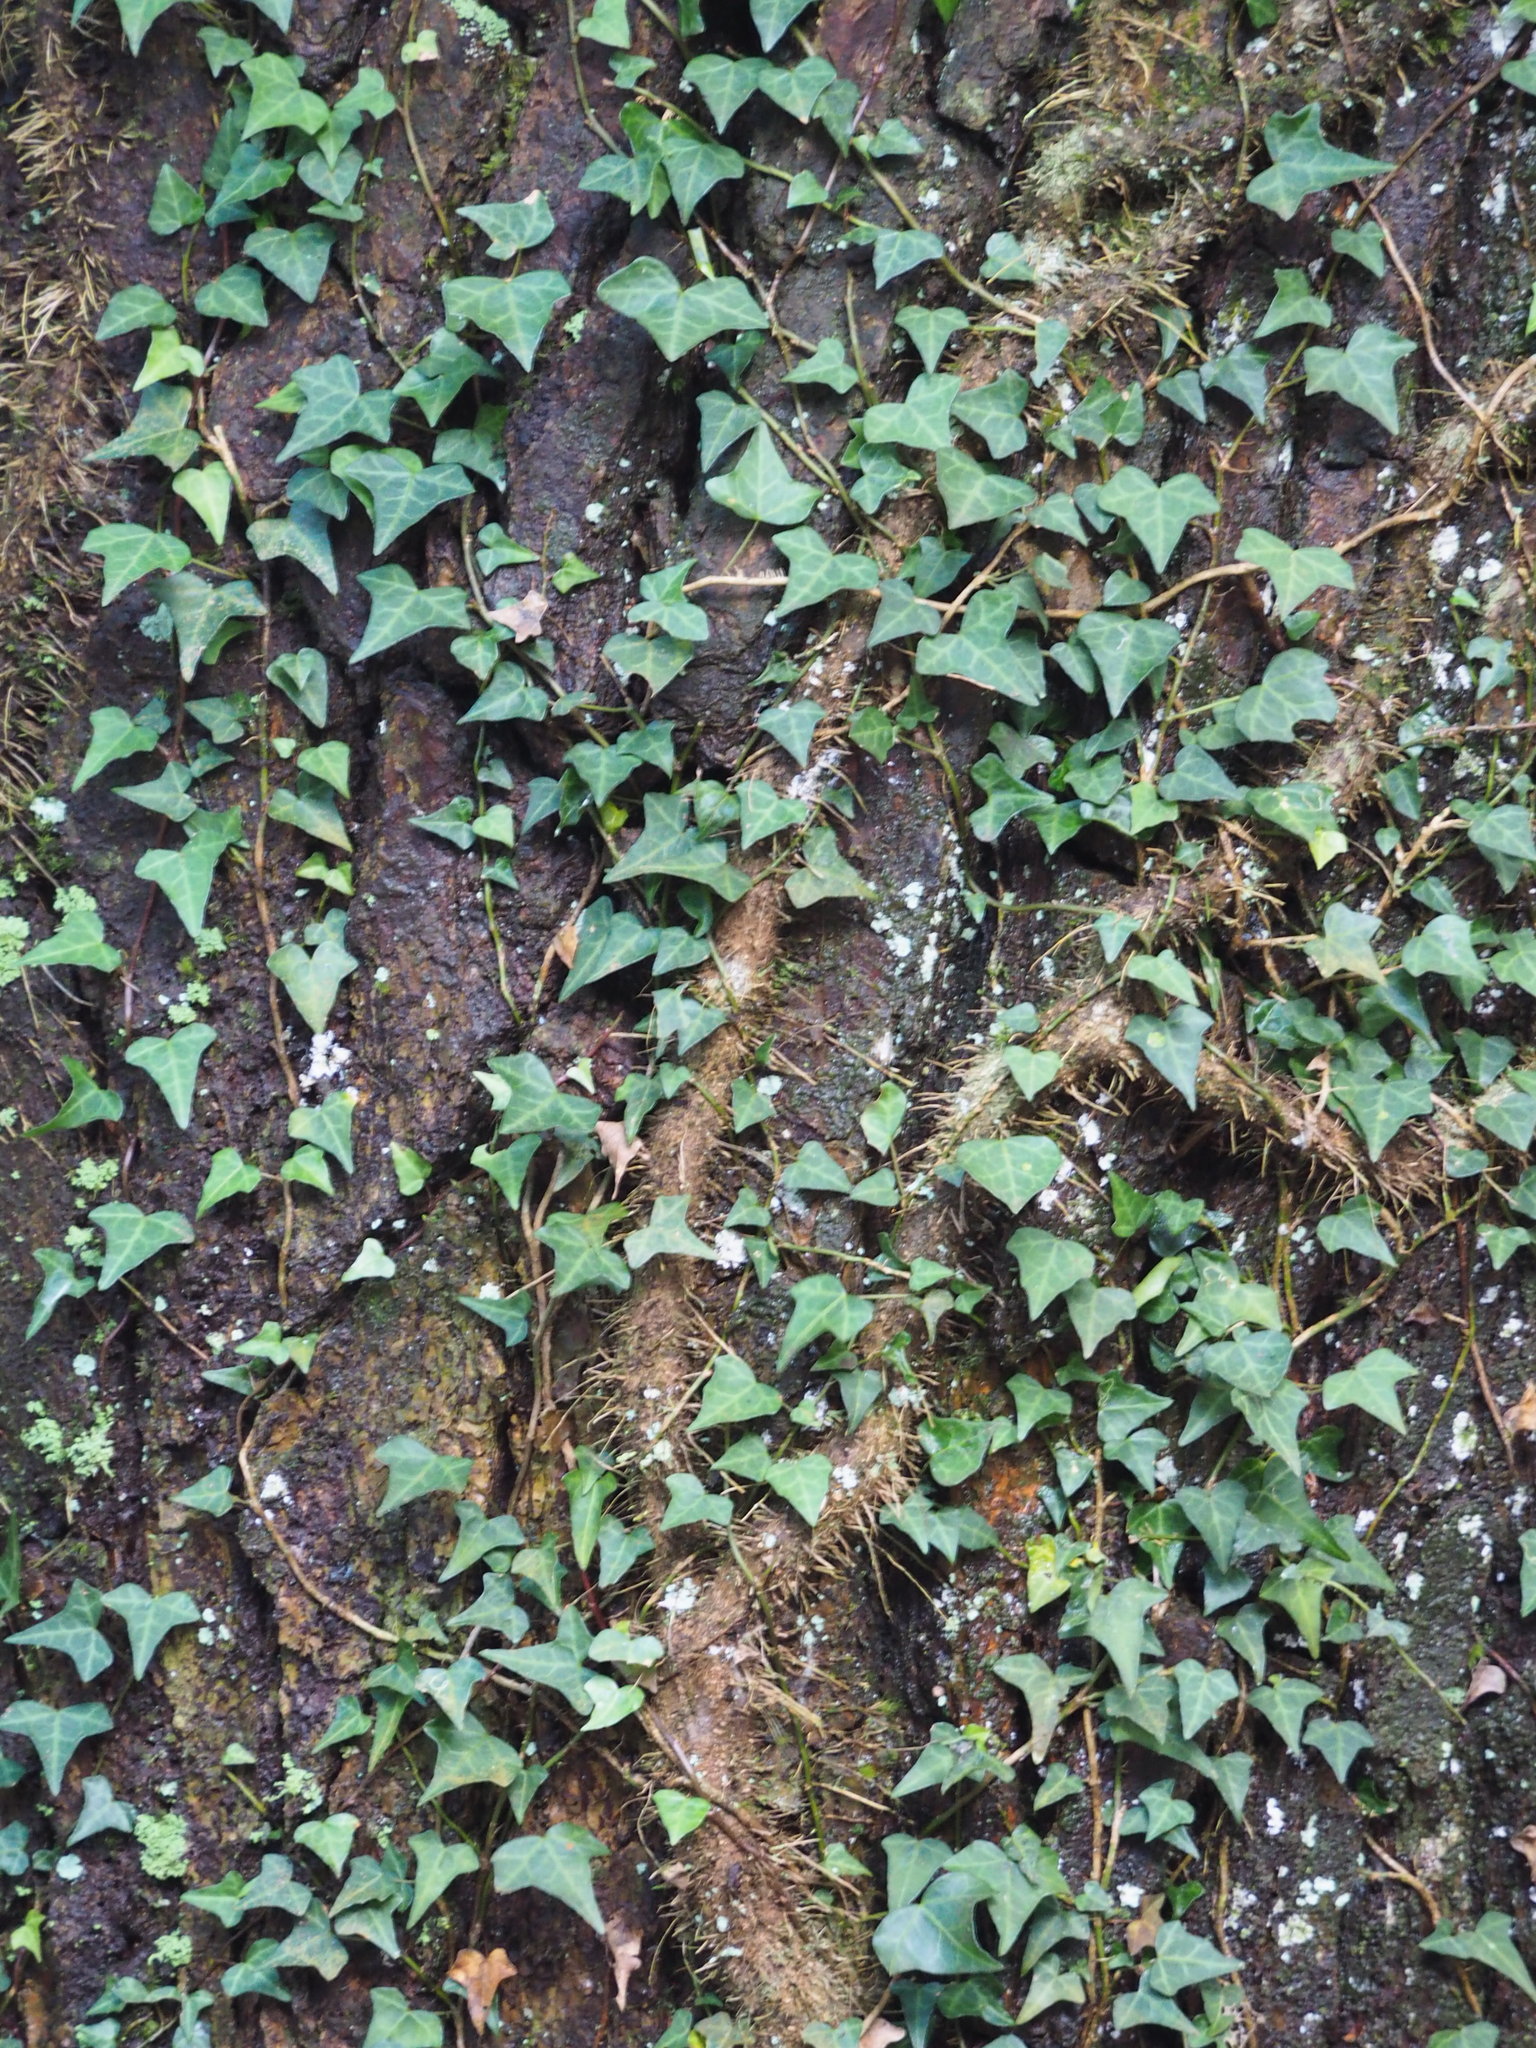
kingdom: Plantae
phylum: Tracheophyta
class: Magnoliopsida
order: Apiales
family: Araliaceae
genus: Hedera
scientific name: Hedera rhombea
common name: Japanese ivy
